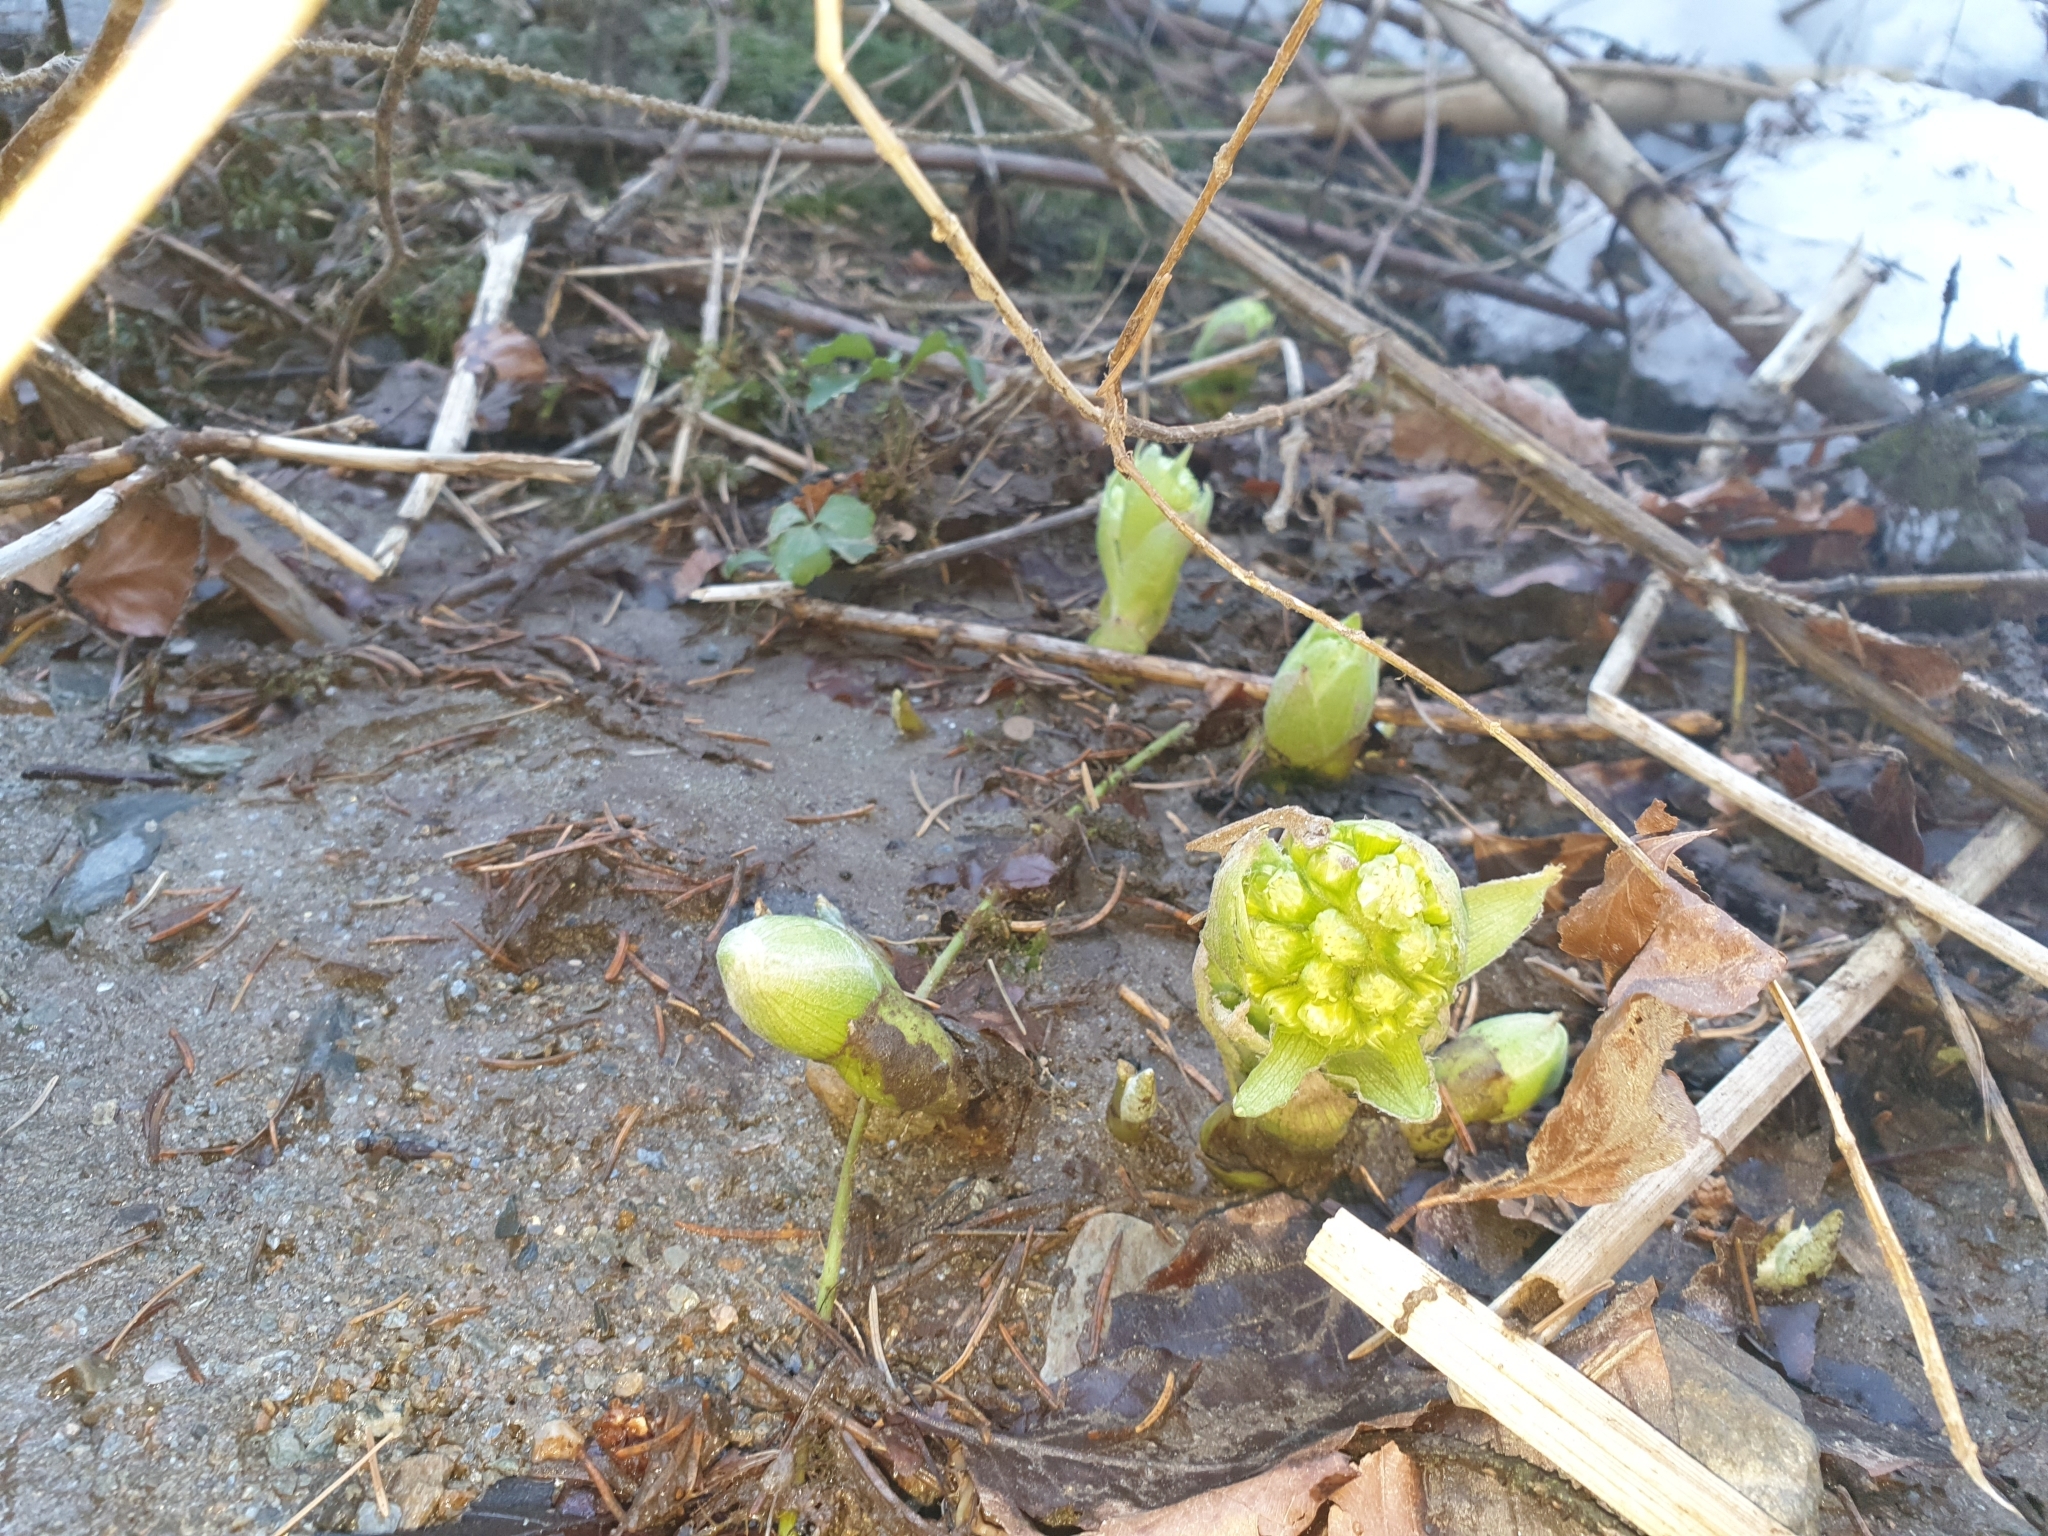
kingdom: Plantae
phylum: Tracheophyta
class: Magnoliopsida
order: Asterales
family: Asteraceae
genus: Petasites
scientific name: Petasites albus
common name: White butterbur
